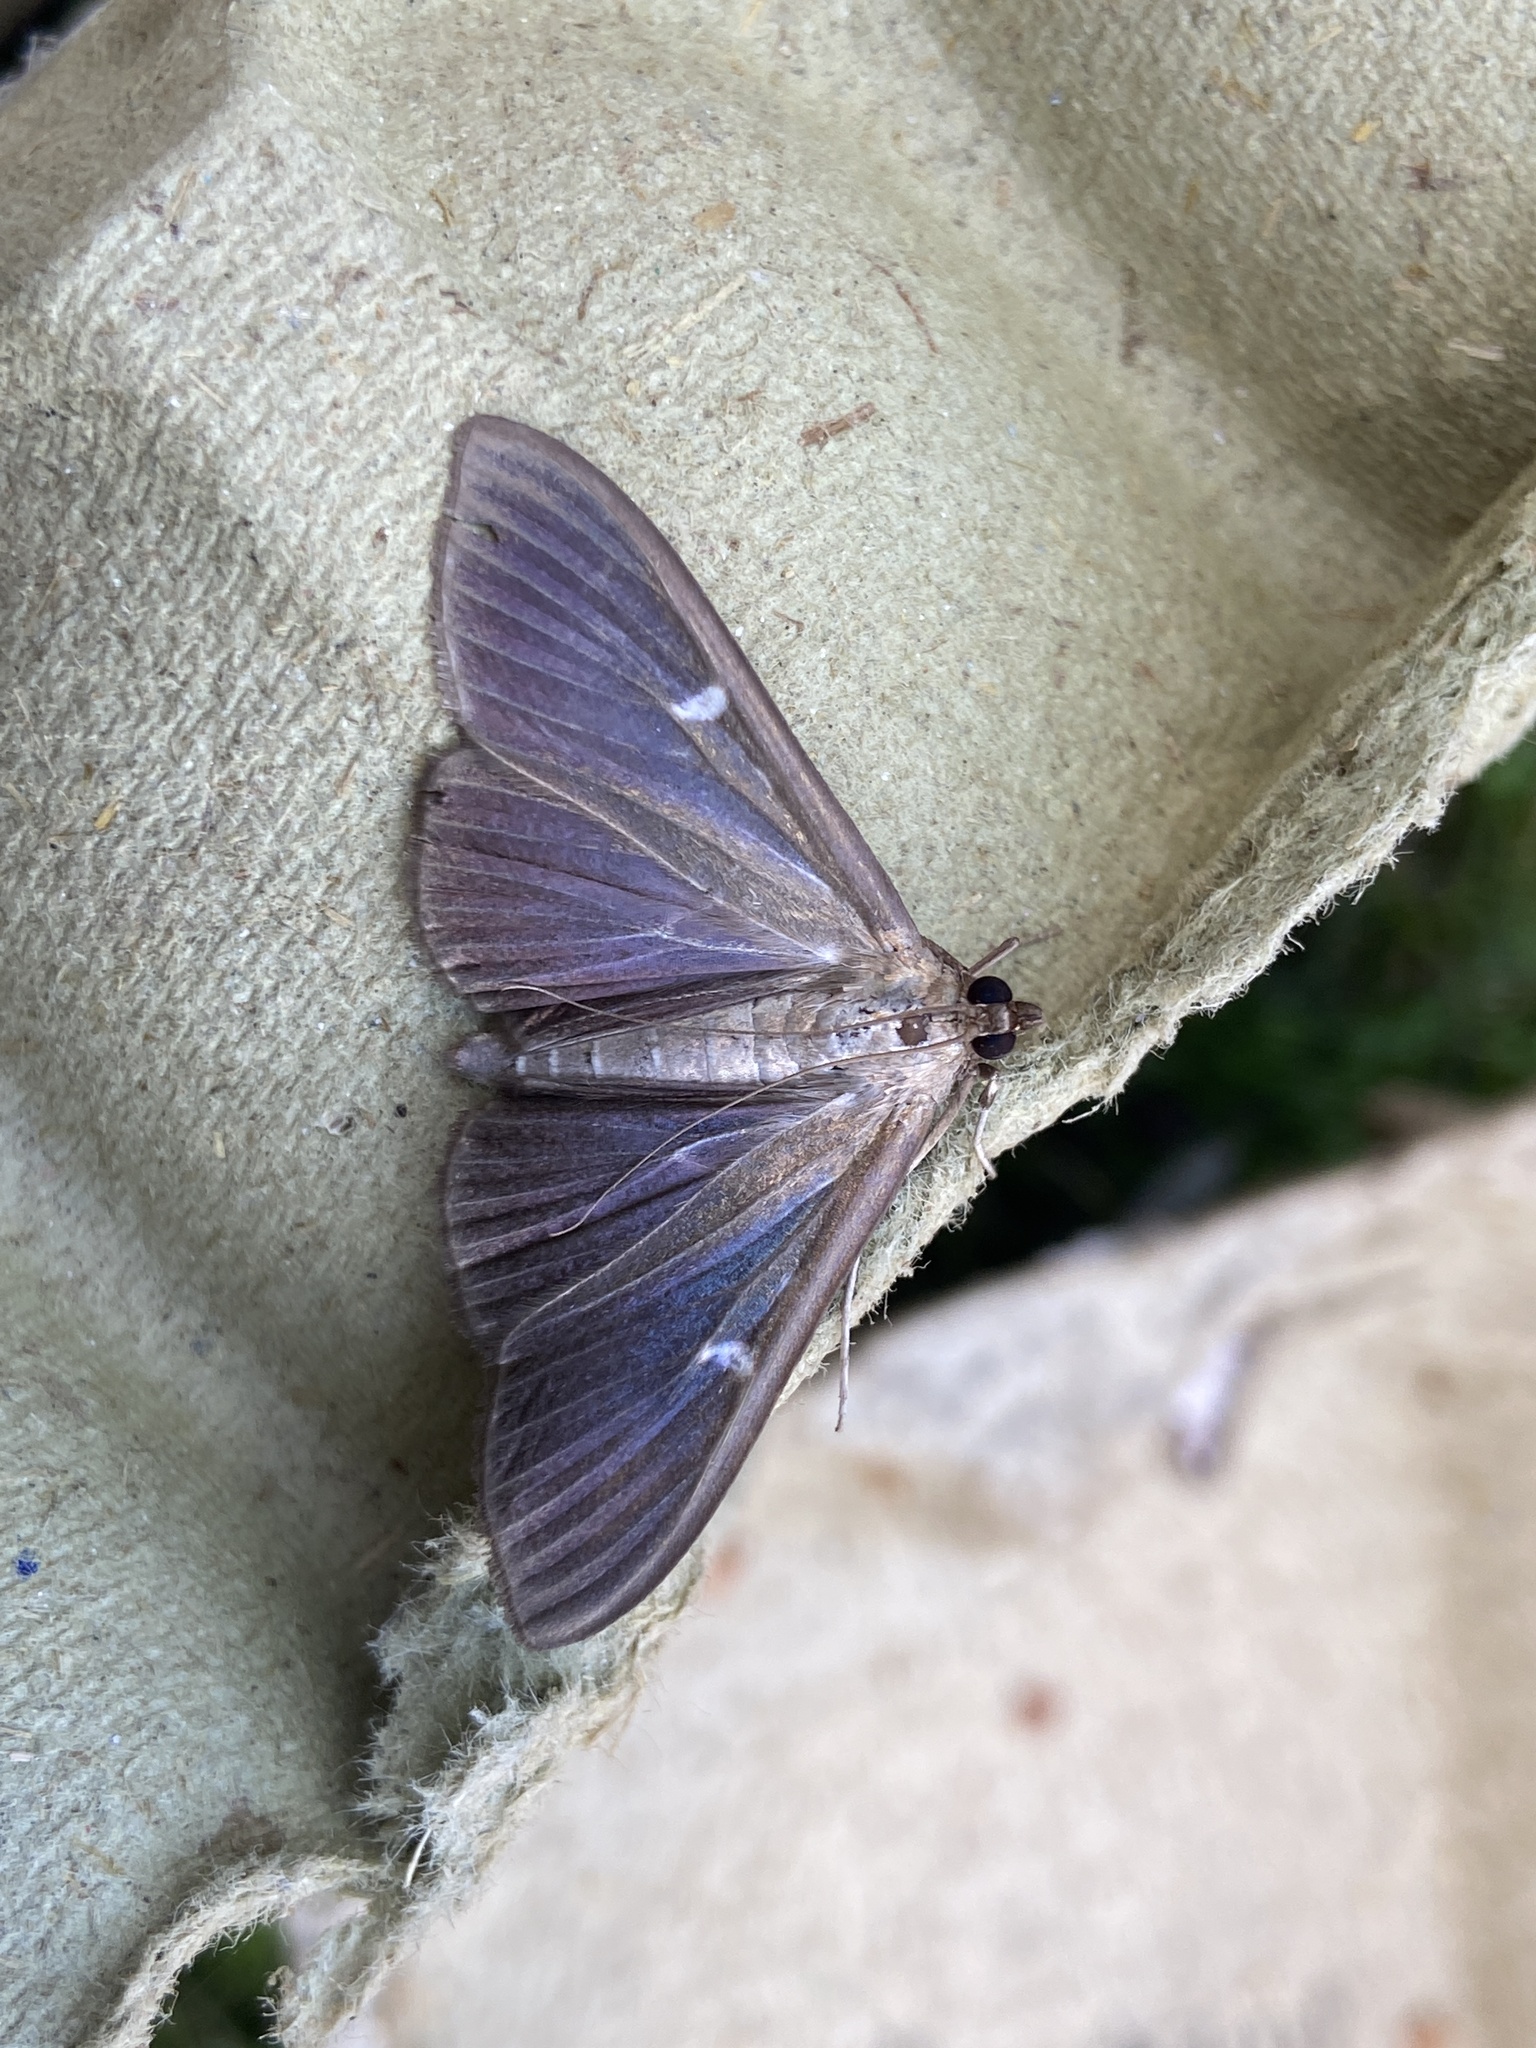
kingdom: Animalia
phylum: Arthropoda
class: Insecta
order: Lepidoptera
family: Crambidae
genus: Cydalima
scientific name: Cydalima perspectalis
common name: Box tree moth
